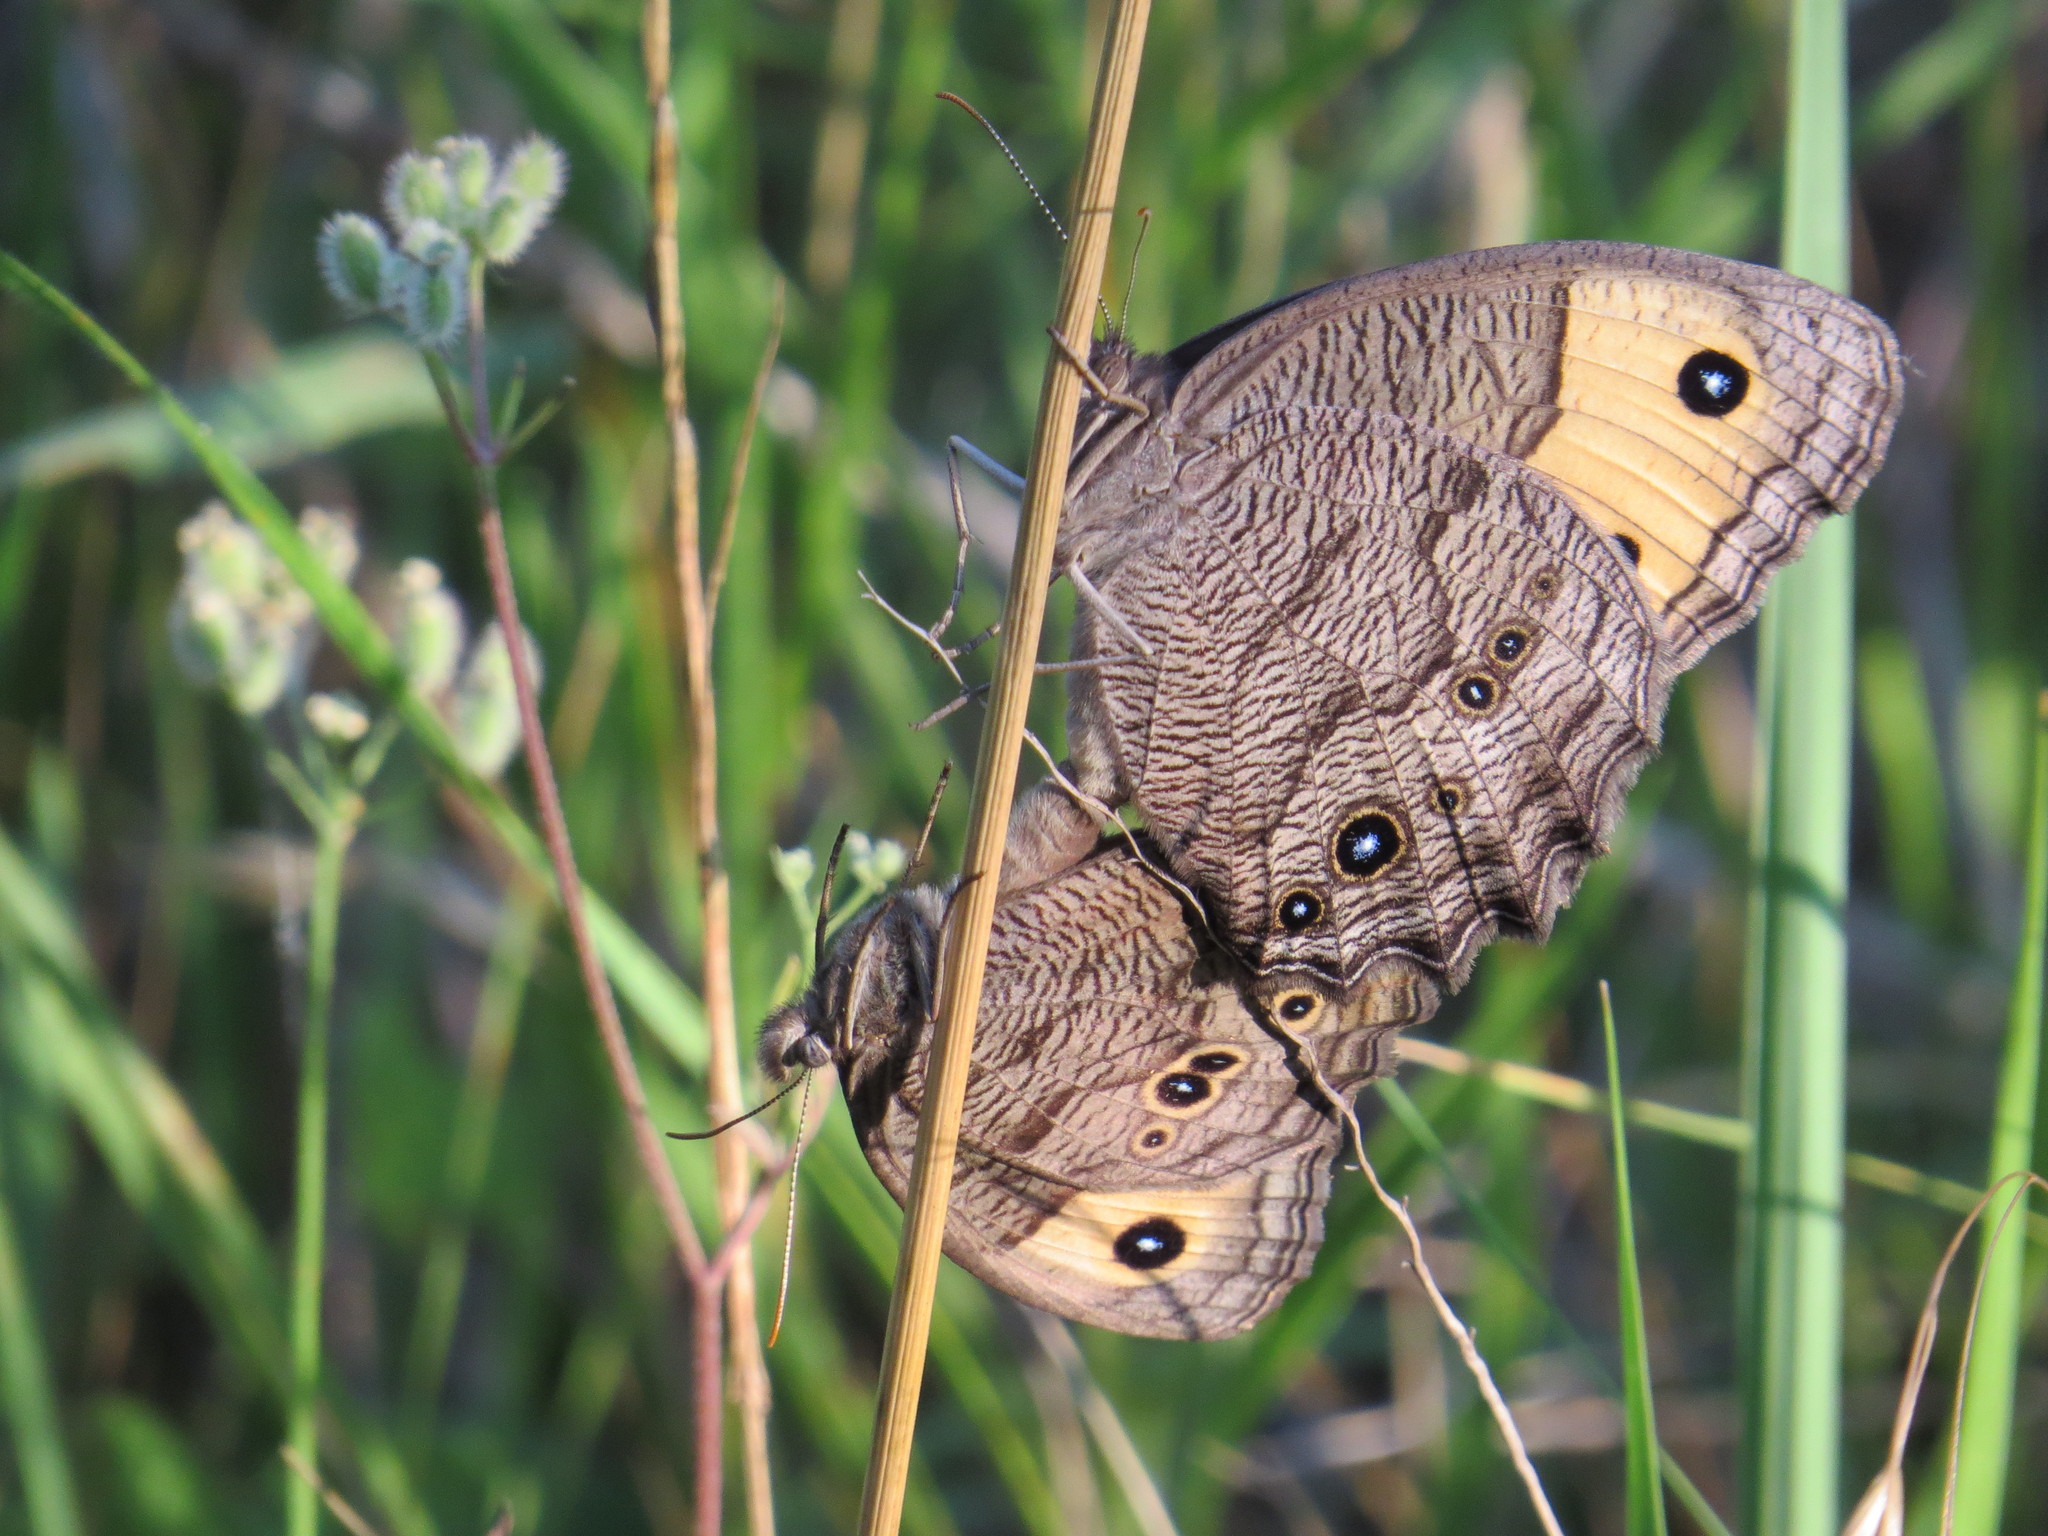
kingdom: Animalia
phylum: Arthropoda
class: Insecta
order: Lepidoptera
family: Nymphalidae
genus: Cercyonis
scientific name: Cercyonis pegala
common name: Common wood-nymph
